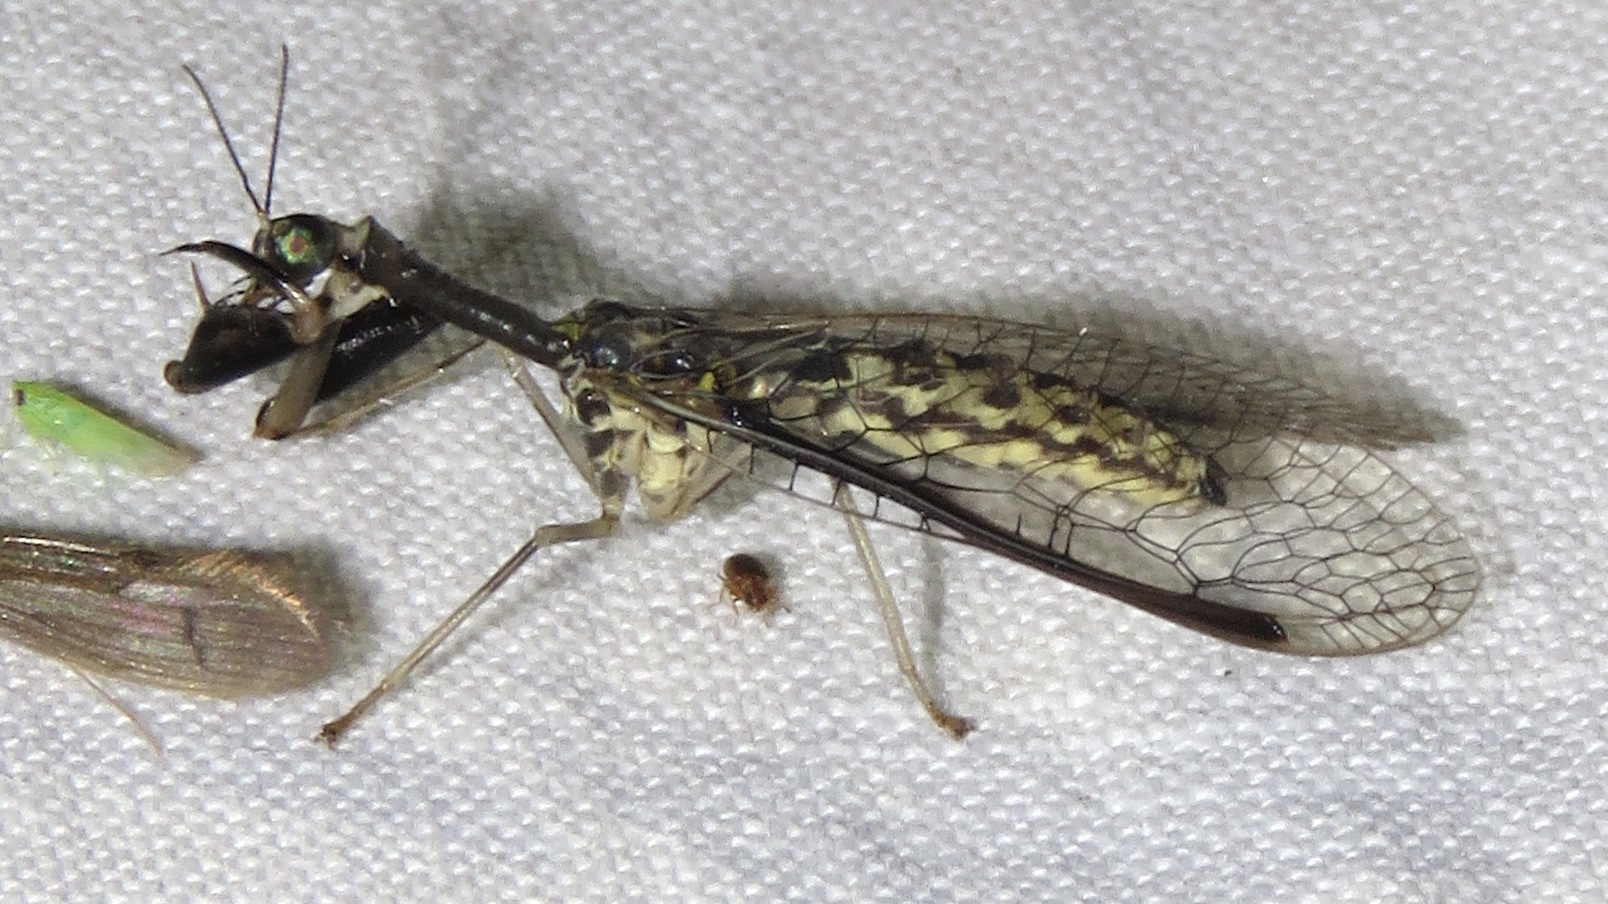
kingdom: Animalia
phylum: Arthropoda
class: Insecta
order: Neuroptera
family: Mantispidae
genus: Dicromantispa
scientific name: Dicromantispa sayi
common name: Say's mantidfly
